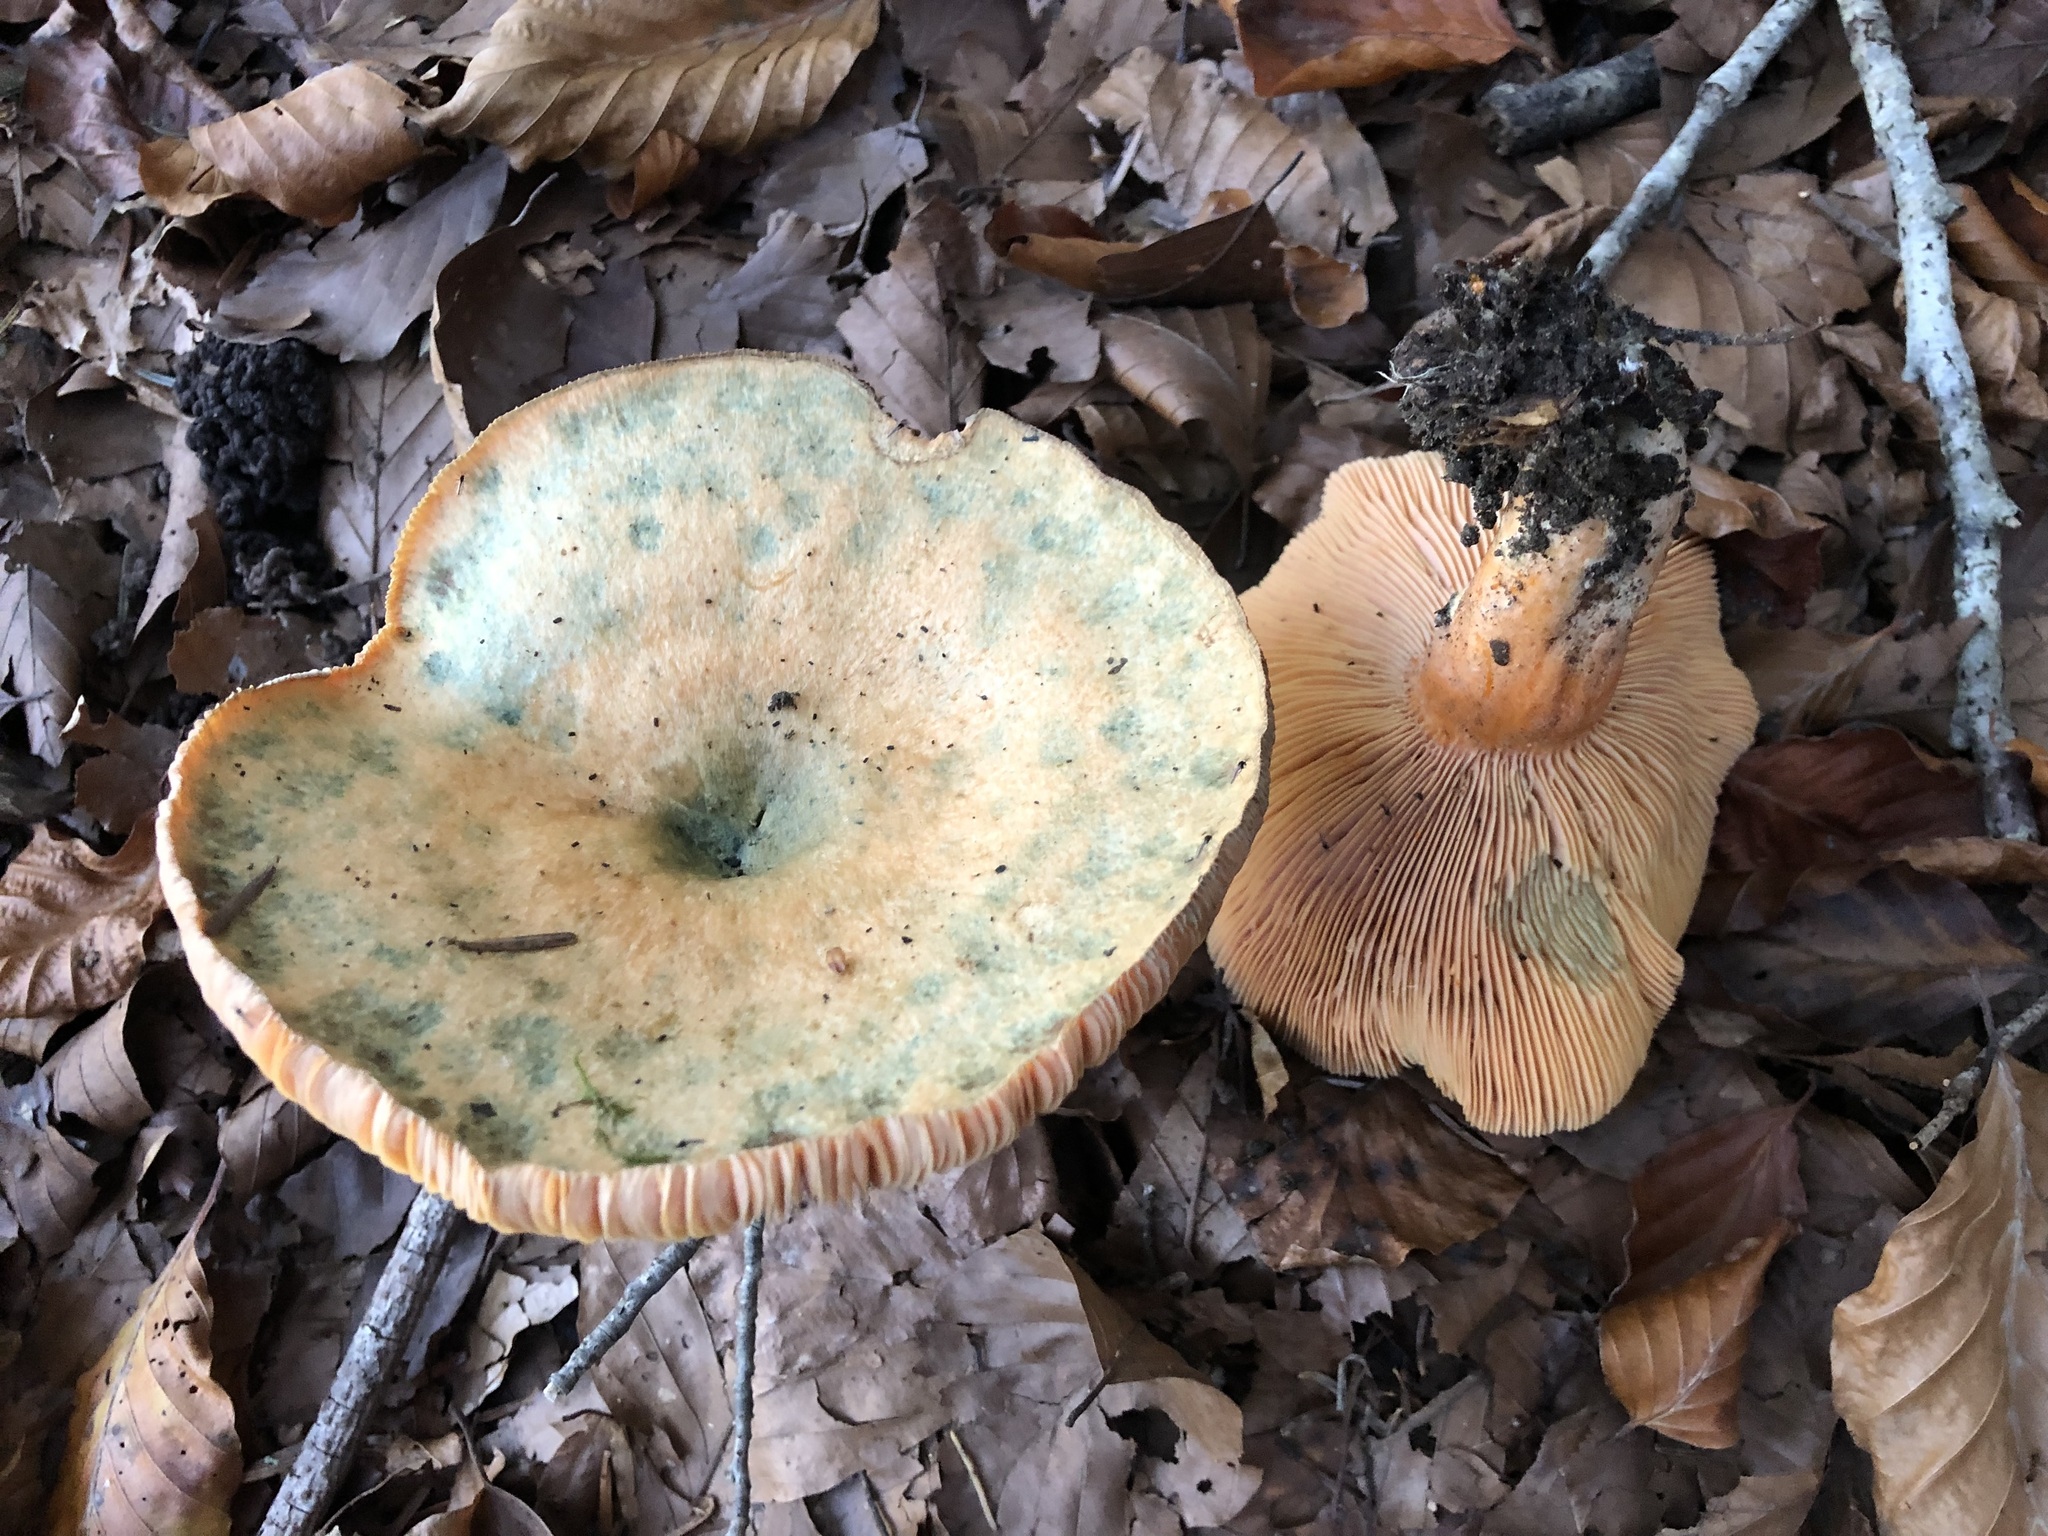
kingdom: Fungi
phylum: Basidiomycota
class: Agaricomycetes
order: Russulales
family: Russulaceae
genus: Lactarius
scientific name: Lactarius deterrimus
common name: False saffron milkcap
